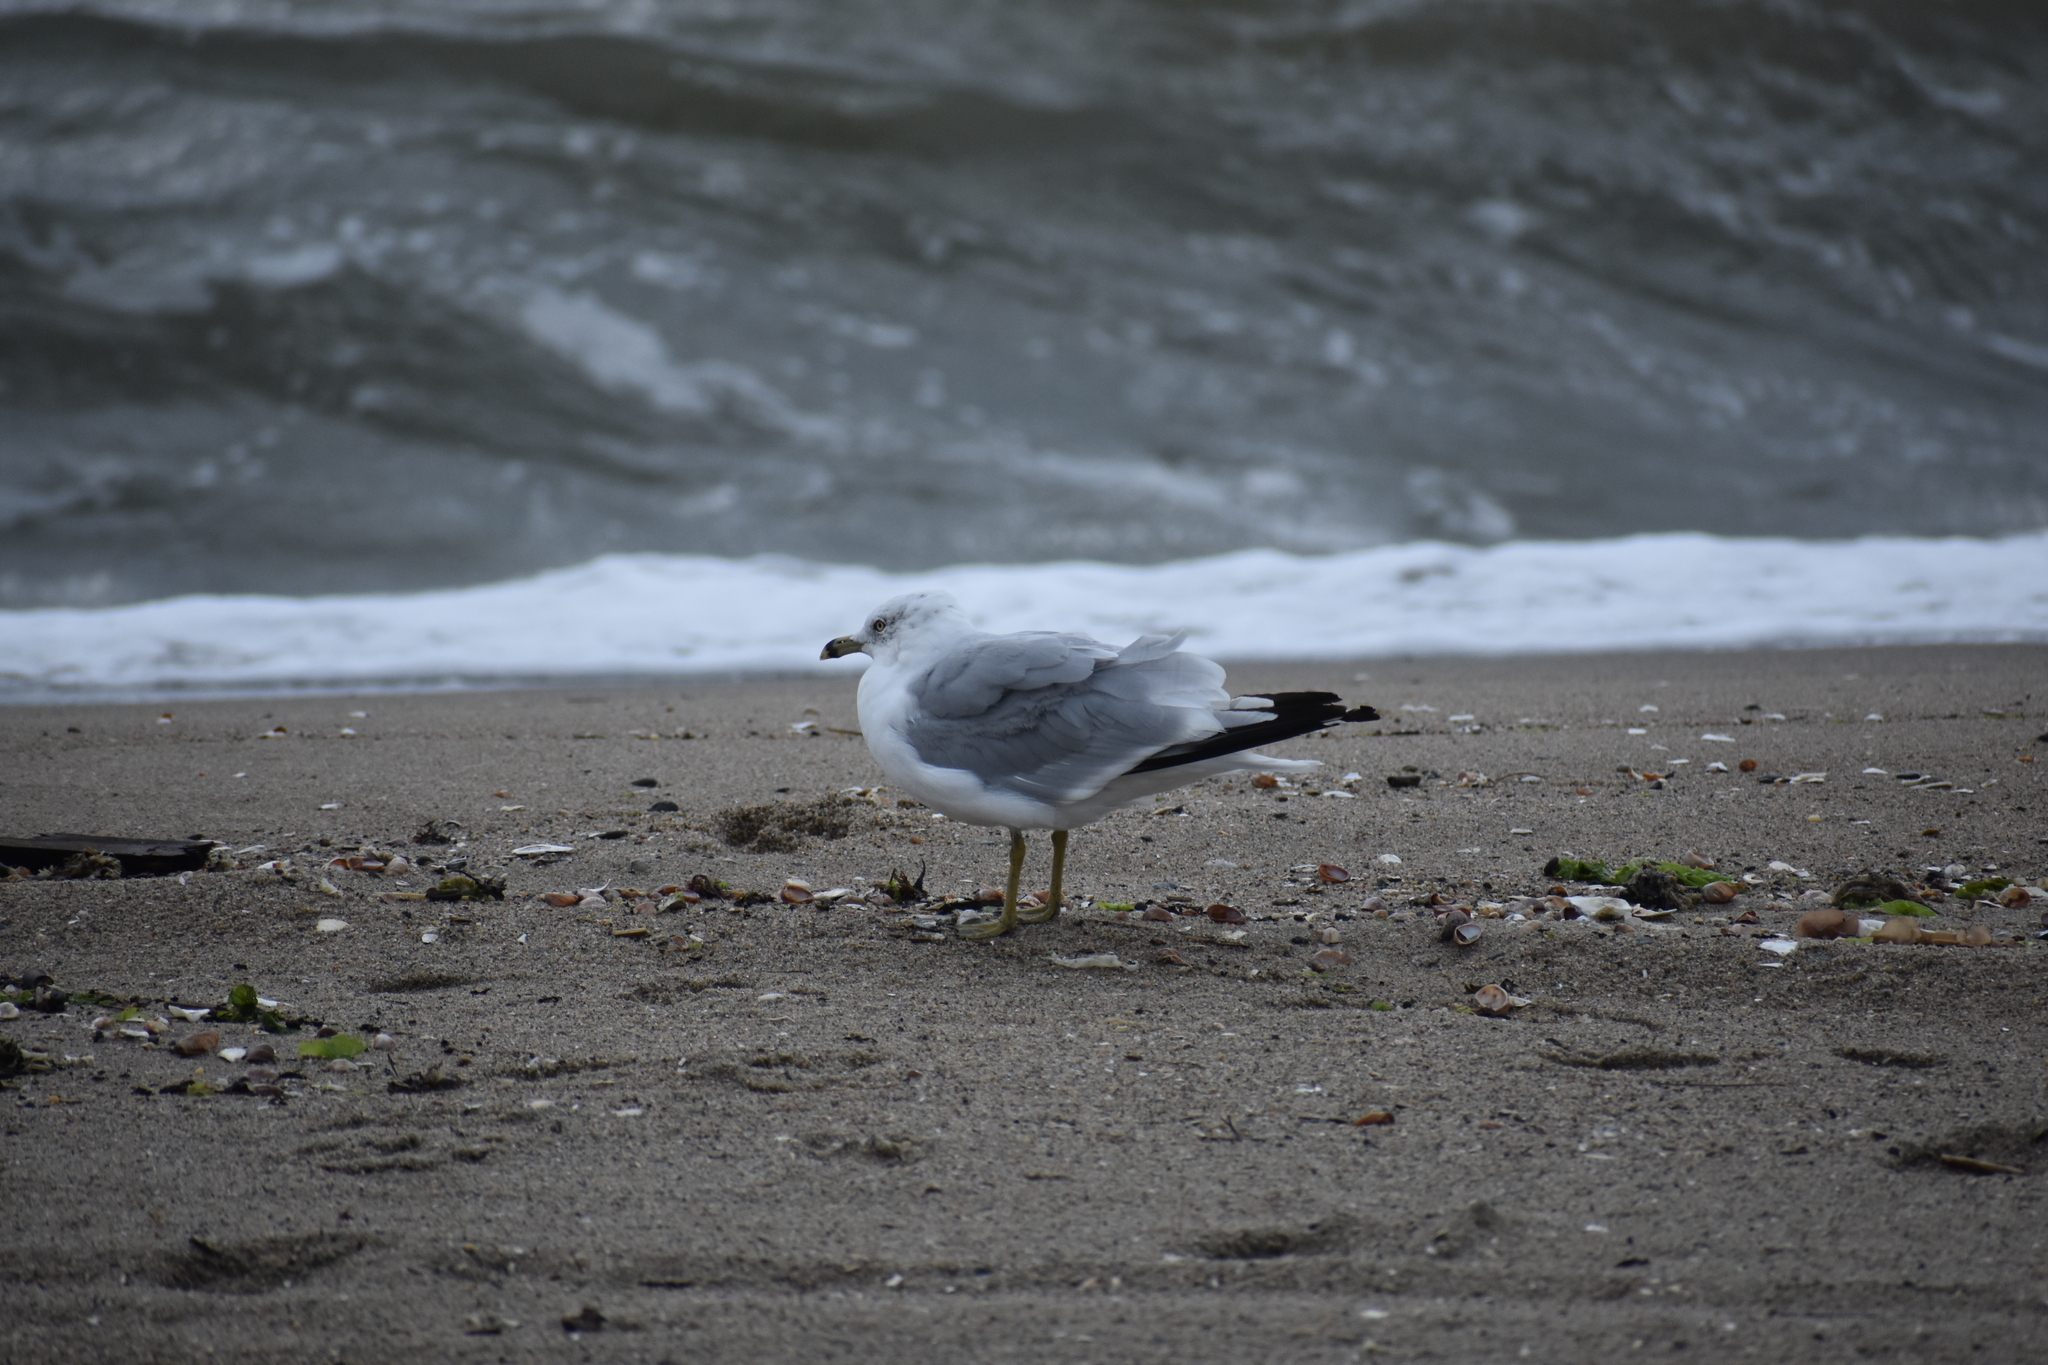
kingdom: Animalia
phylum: Chordata
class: Aves
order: Charadriiformes
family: Laridae
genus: Larus
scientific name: Larus delawarensis
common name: Ring-billed gull
